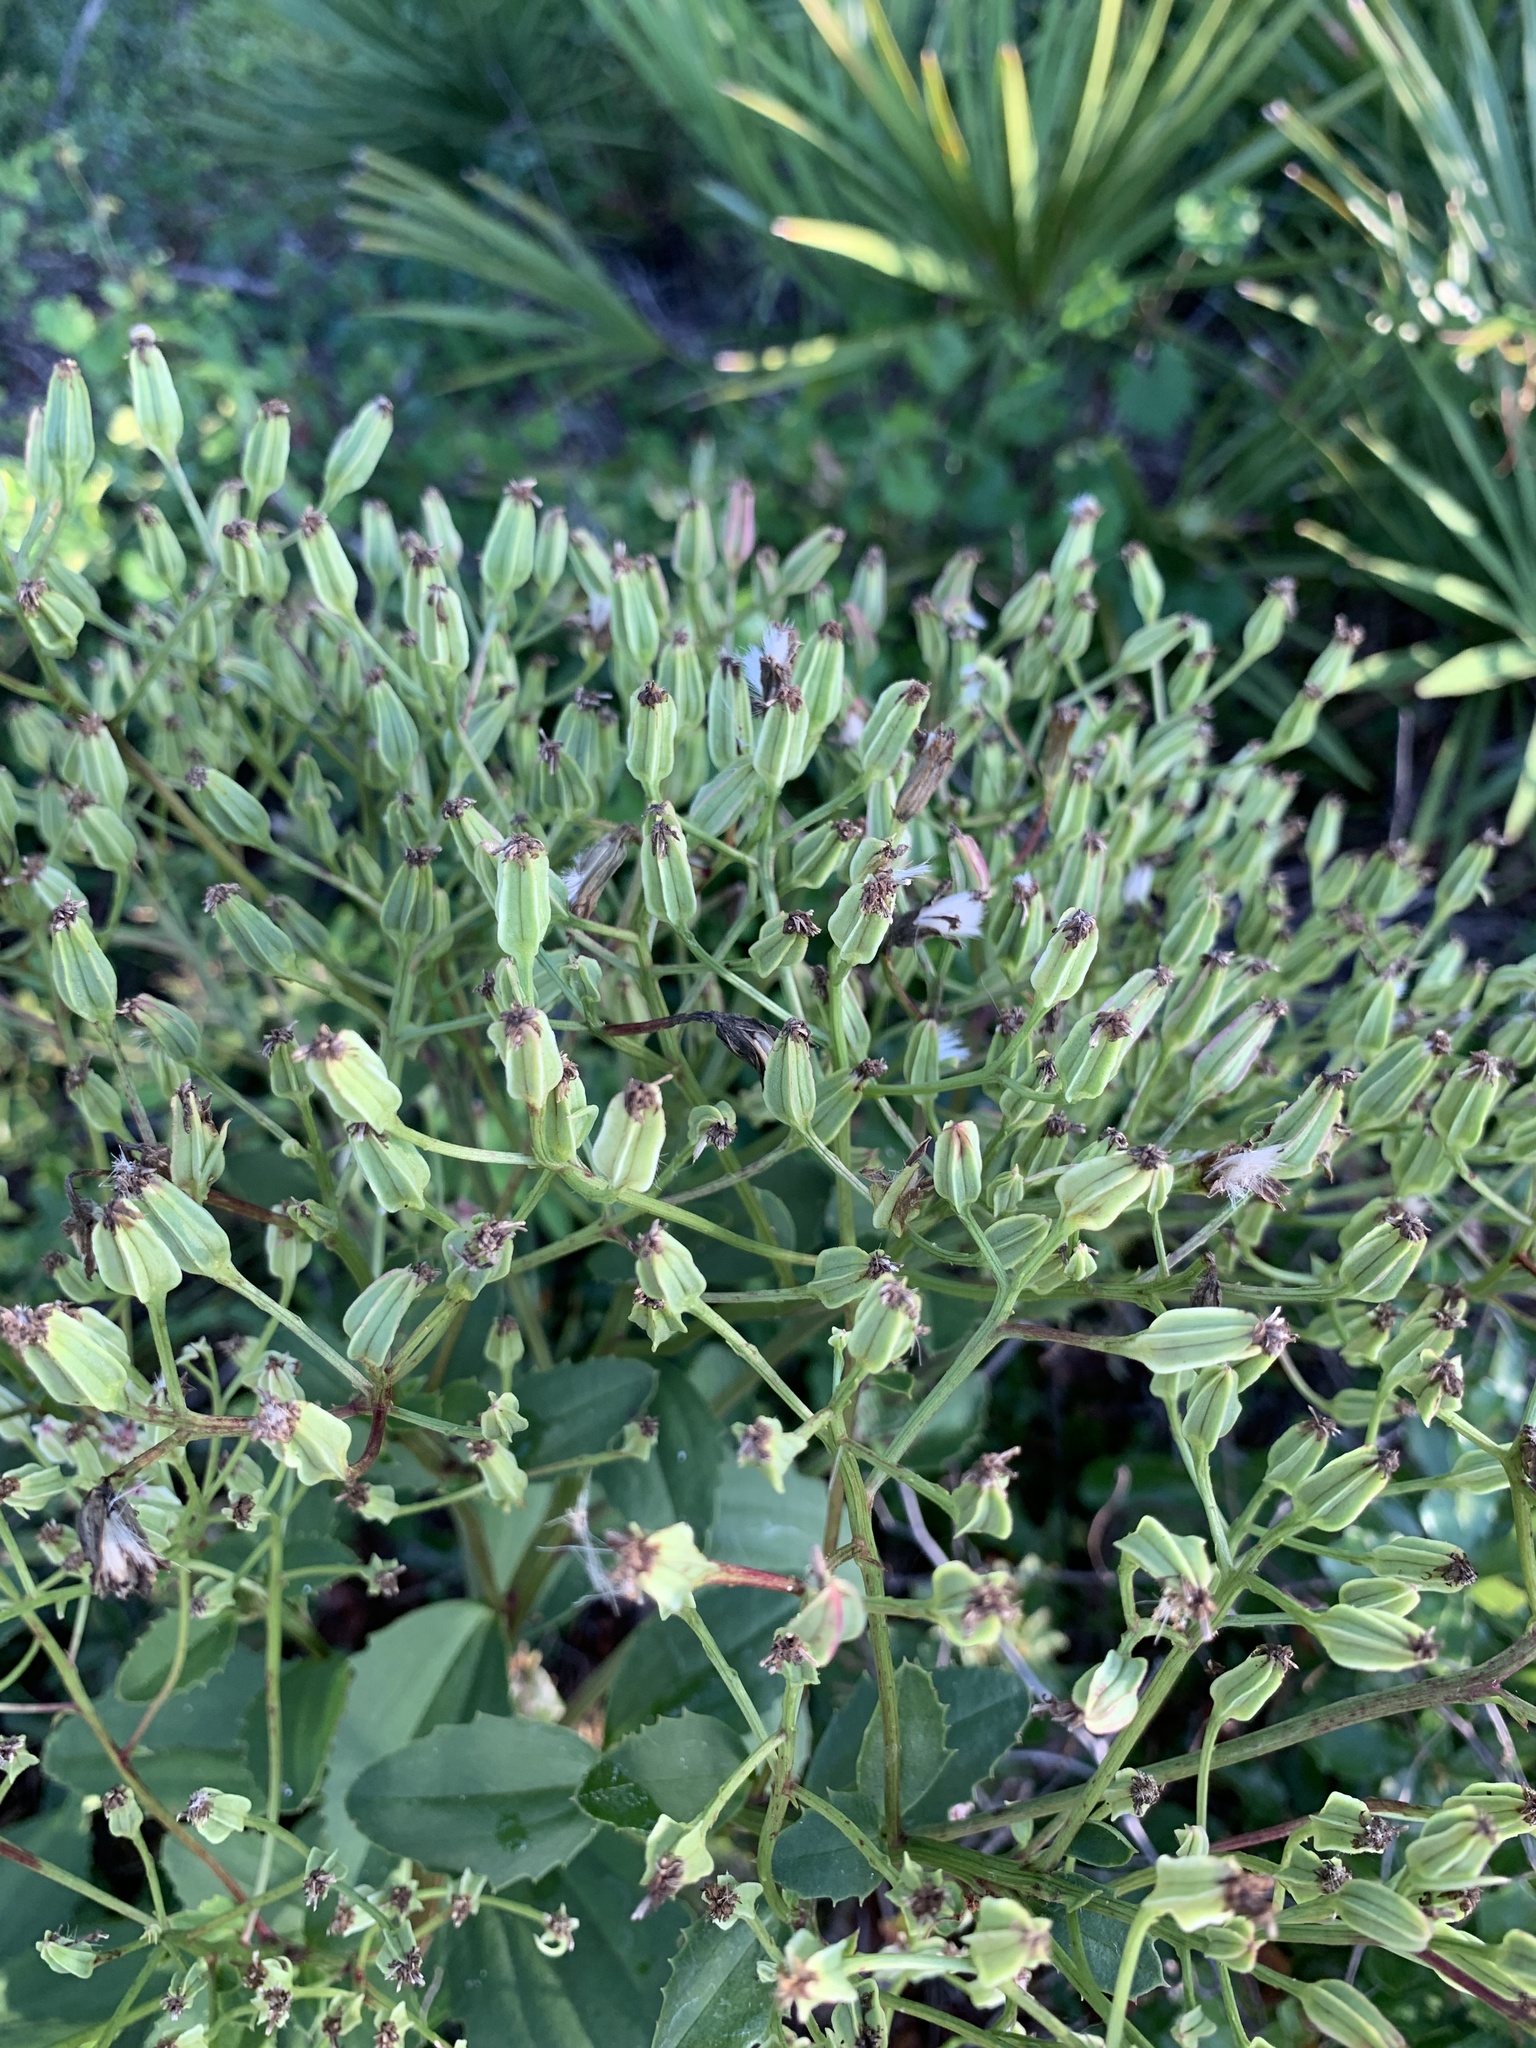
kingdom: Plantae
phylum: Tracheophyta
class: Magnoliopsida
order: Asterales
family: Asteraceae
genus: Arnoglossum
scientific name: Arnoglossum floridanum
